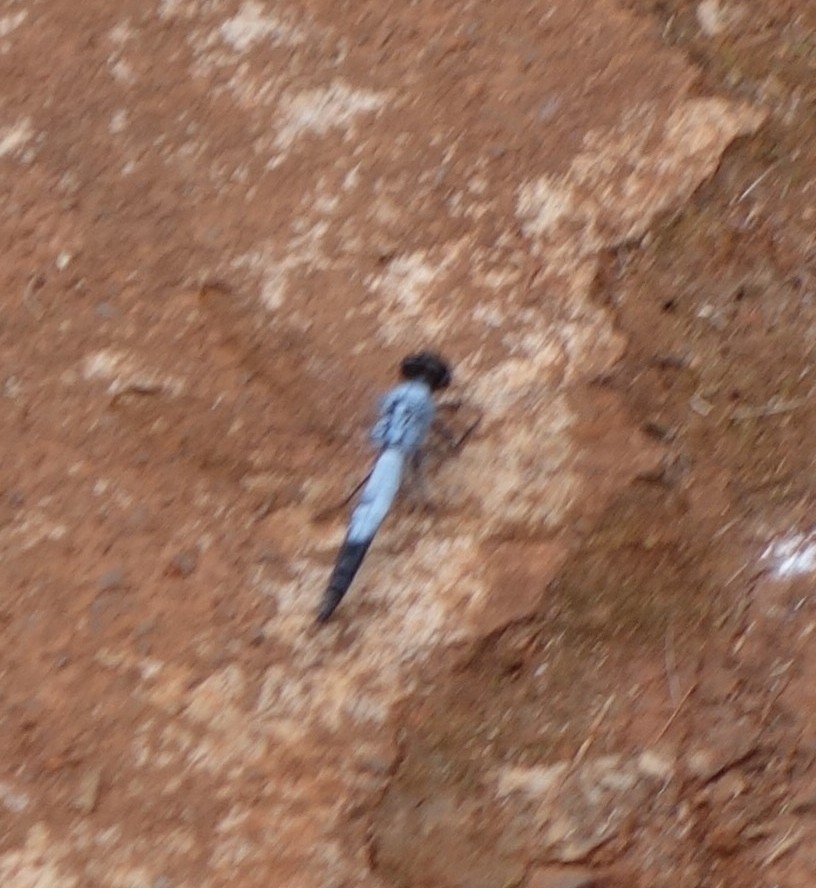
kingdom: Animalia
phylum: Arthropoda
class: Insecta
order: Odonata
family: Libellulidae
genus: Nesciothemis
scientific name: Nesciothemis farinosa
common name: Eastern blacktail
